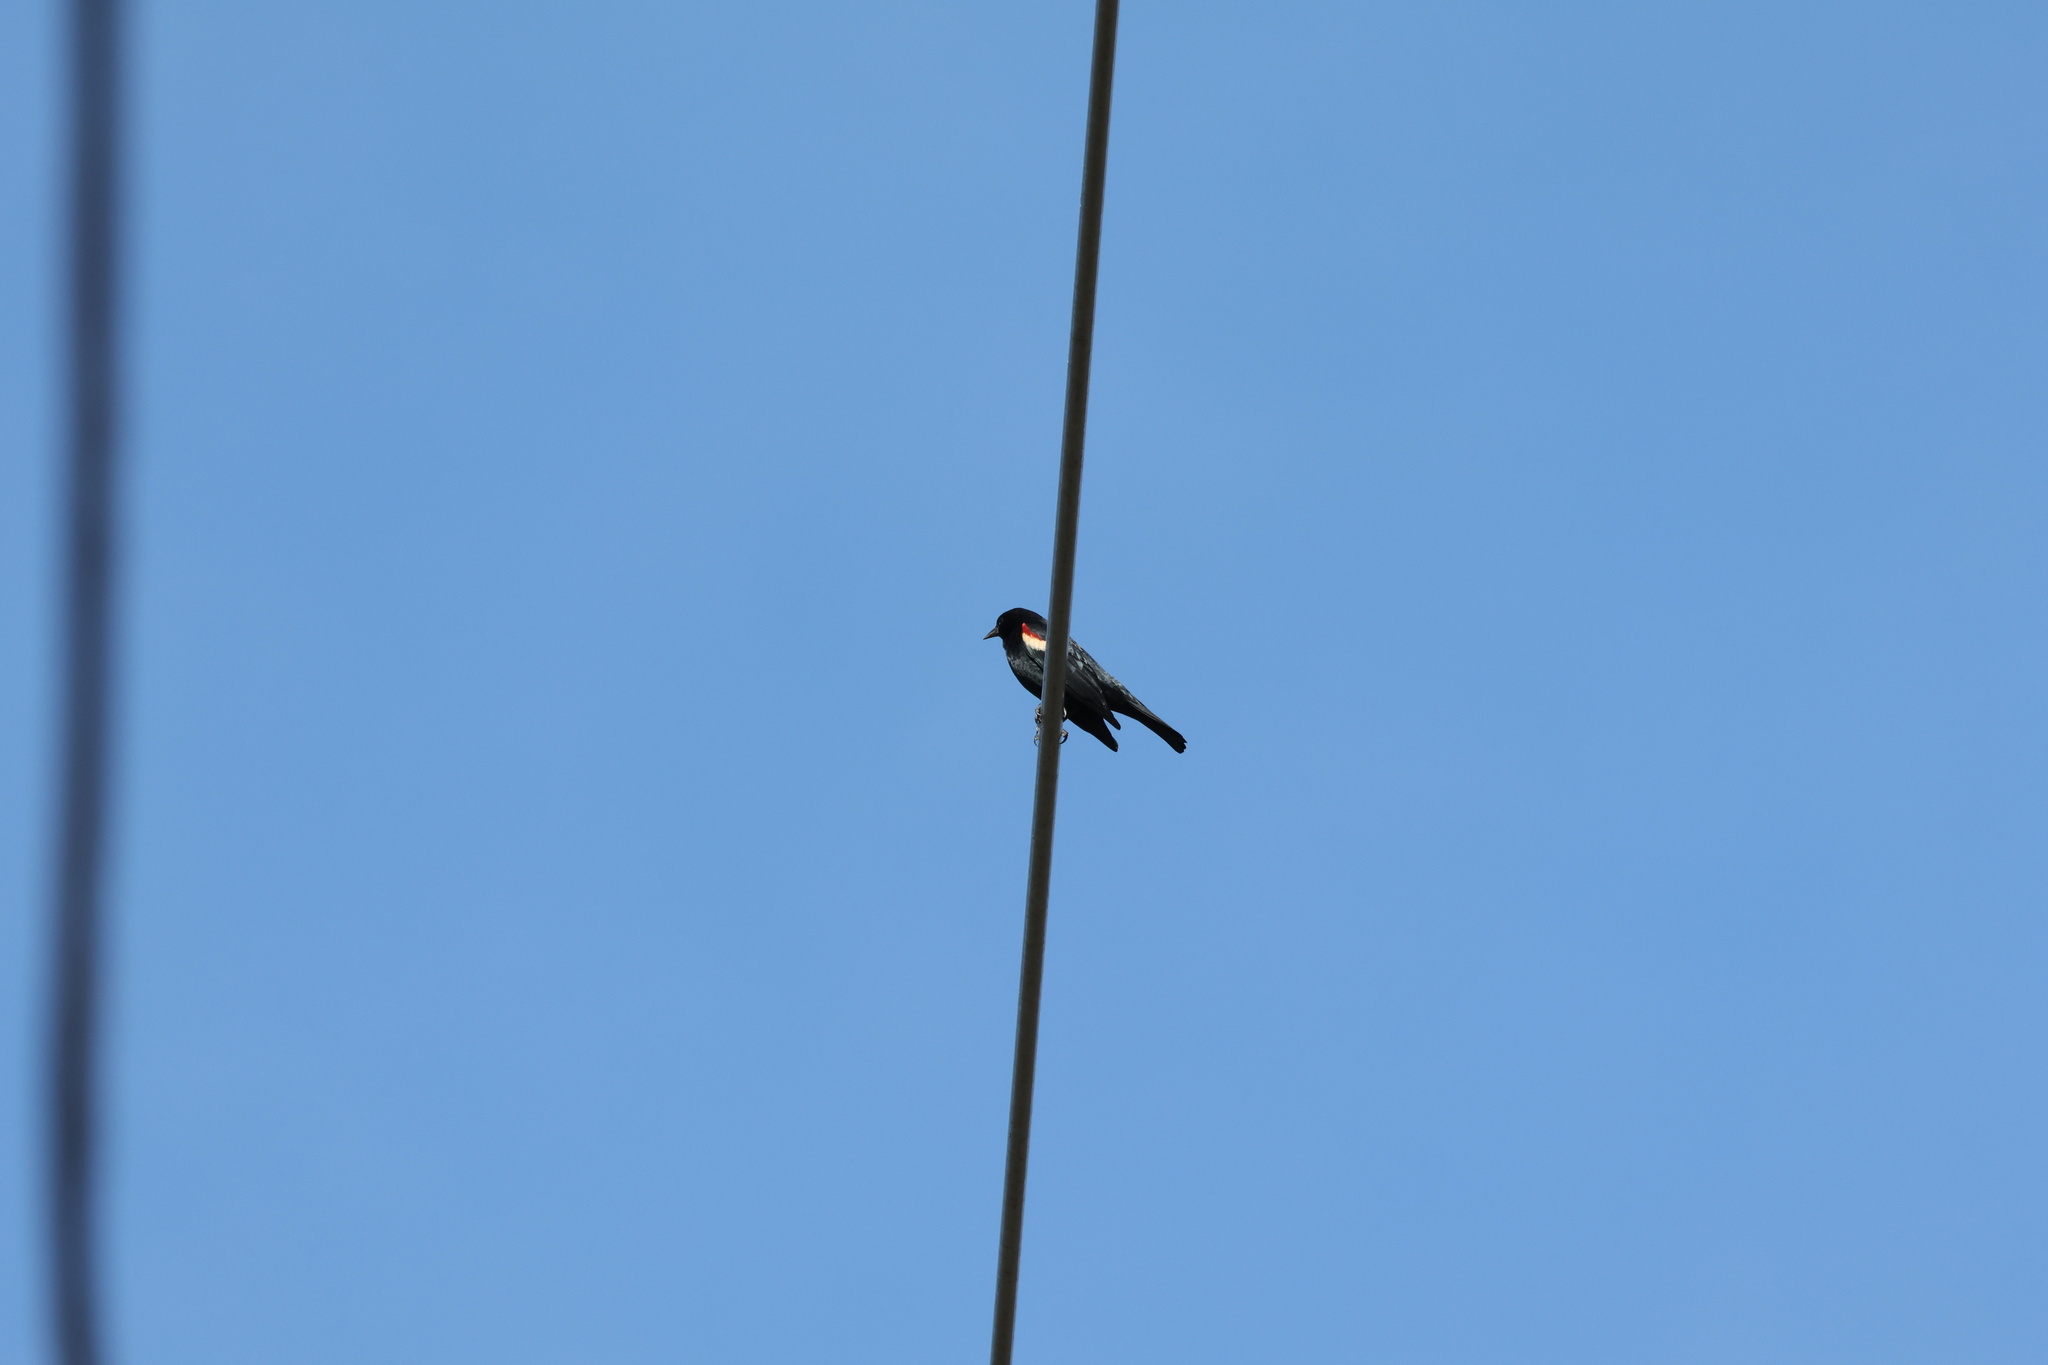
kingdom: Animalia
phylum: Chordata
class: Aves
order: Passeriformes
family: Icteridae
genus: Agelaius
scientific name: Agelaius tricolor
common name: Tricolored blackbird
